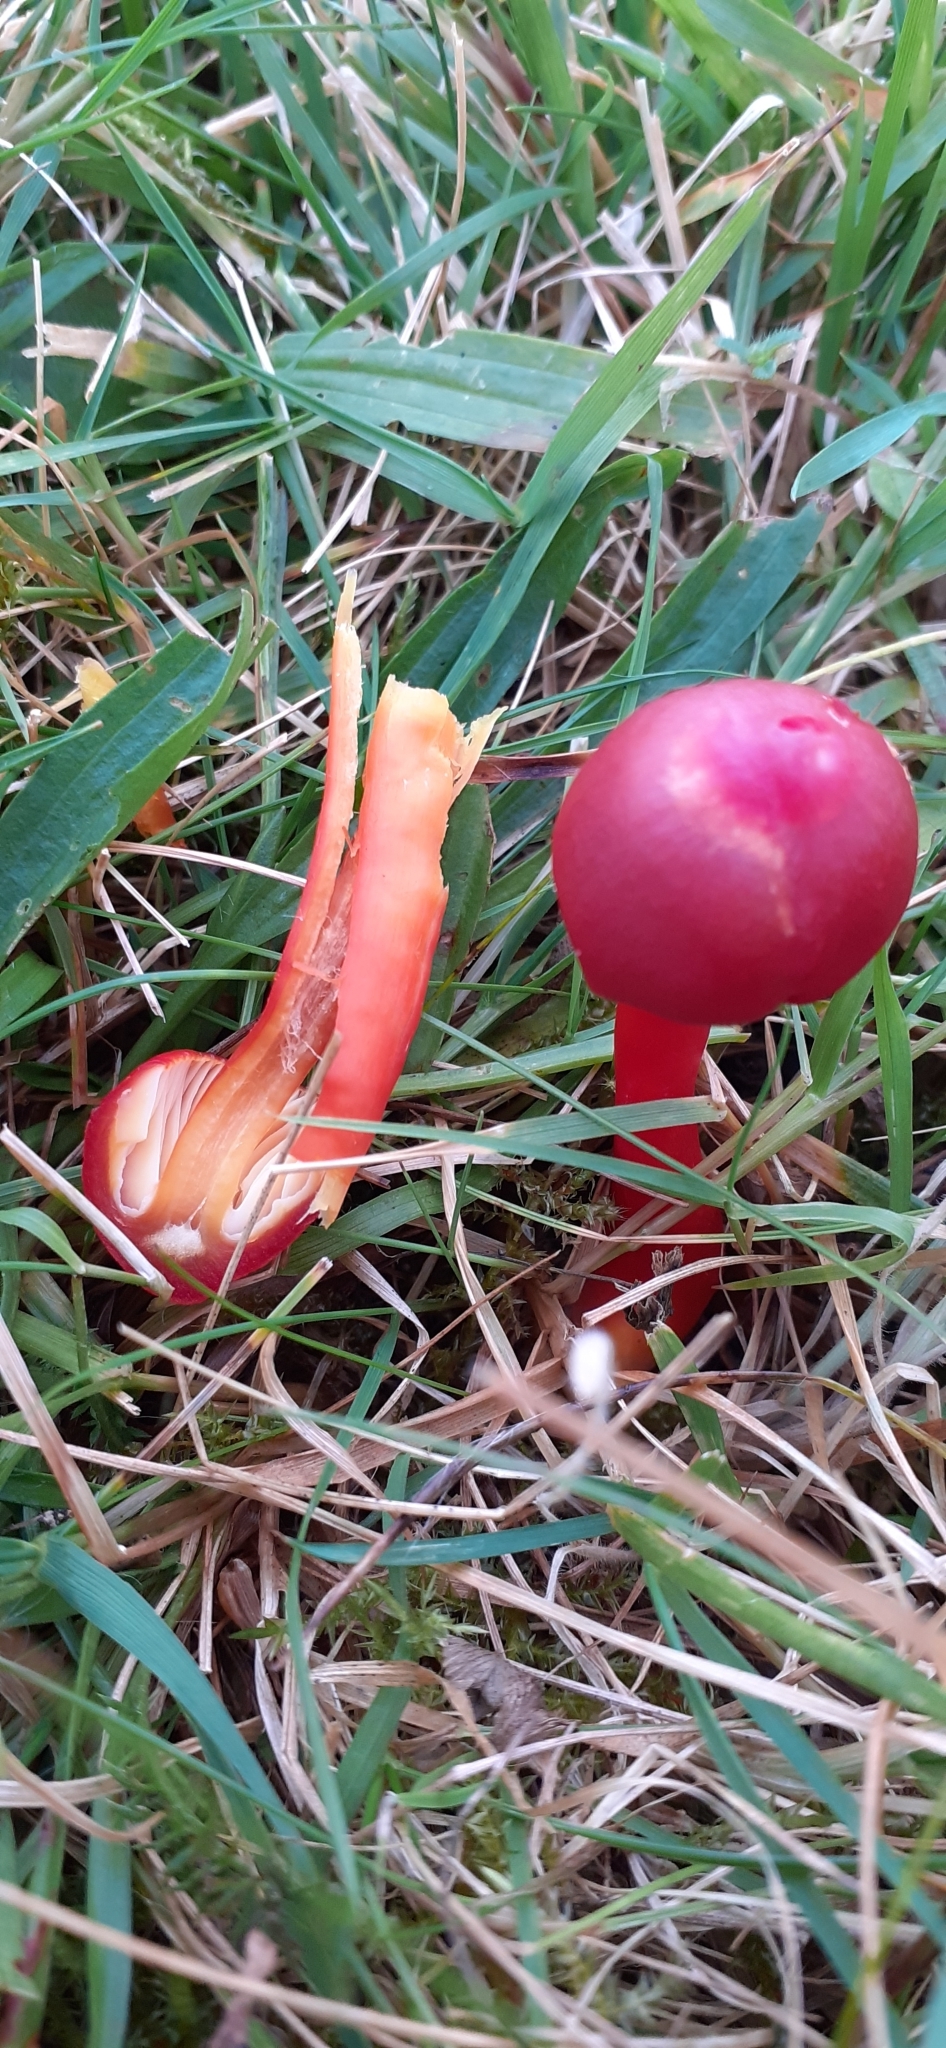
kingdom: Fungi
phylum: Basidiomycota
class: Agaricomycetes
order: Agaricales
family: Hygrophoraceae
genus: Hygrocybe
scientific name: Hygrocybe coccinea
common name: Scarlet hood
